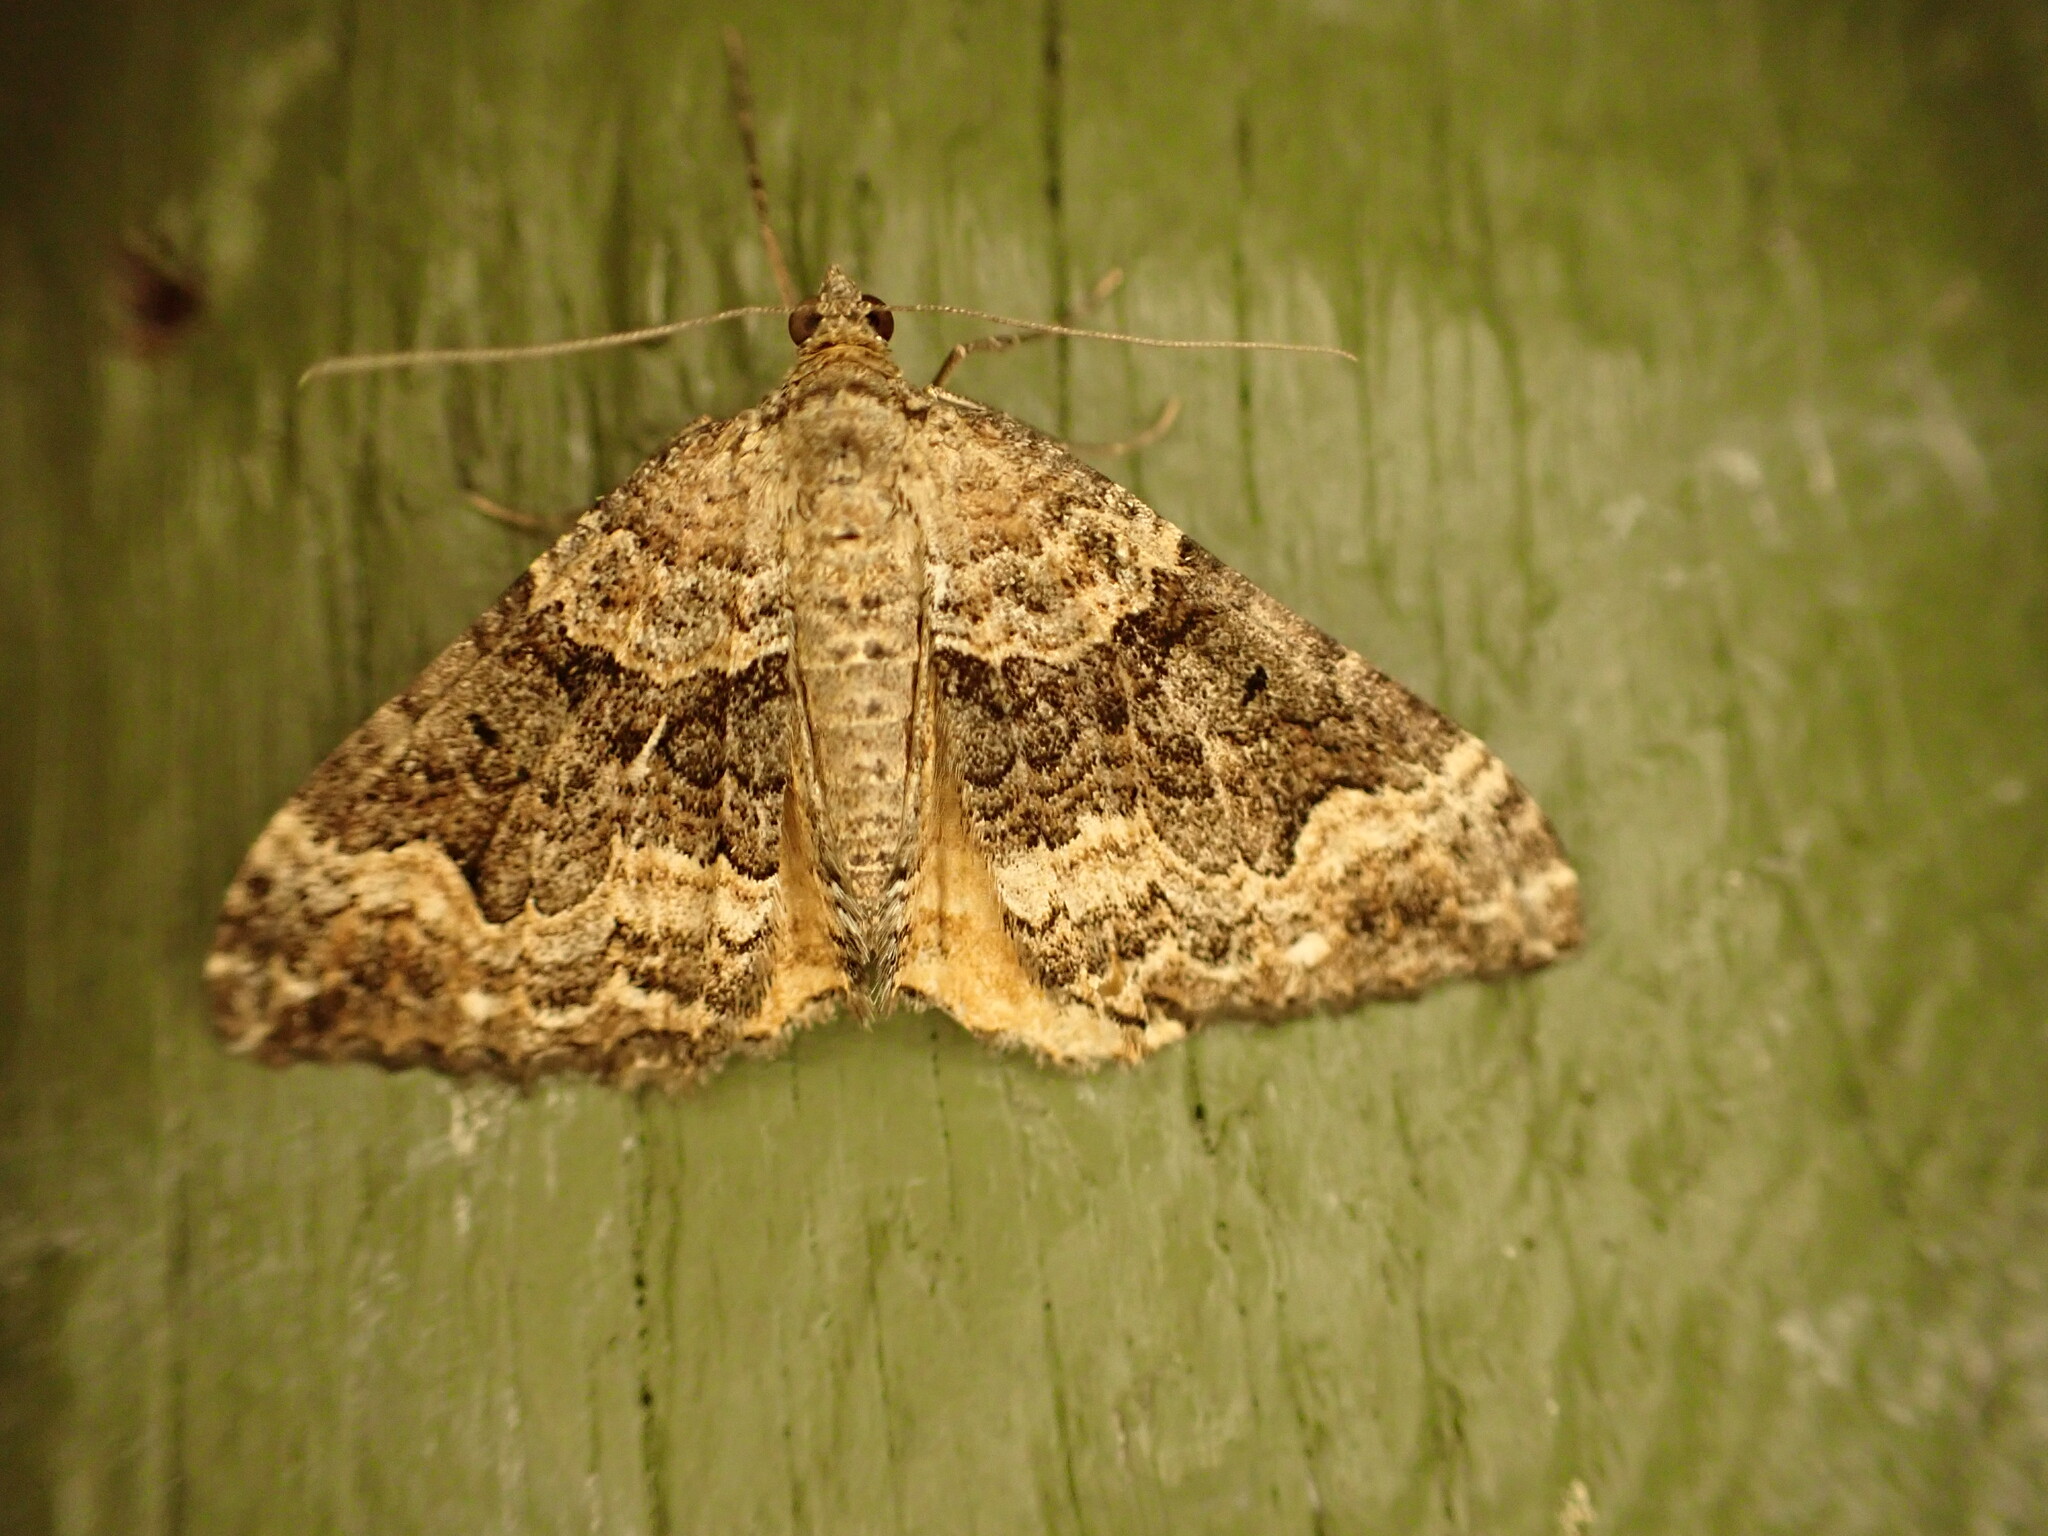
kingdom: Animalia
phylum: Arthropoda
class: Insecta
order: Lepidoptera
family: Geometridae
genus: Hydriomena
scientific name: Hydriomena deltoidata
